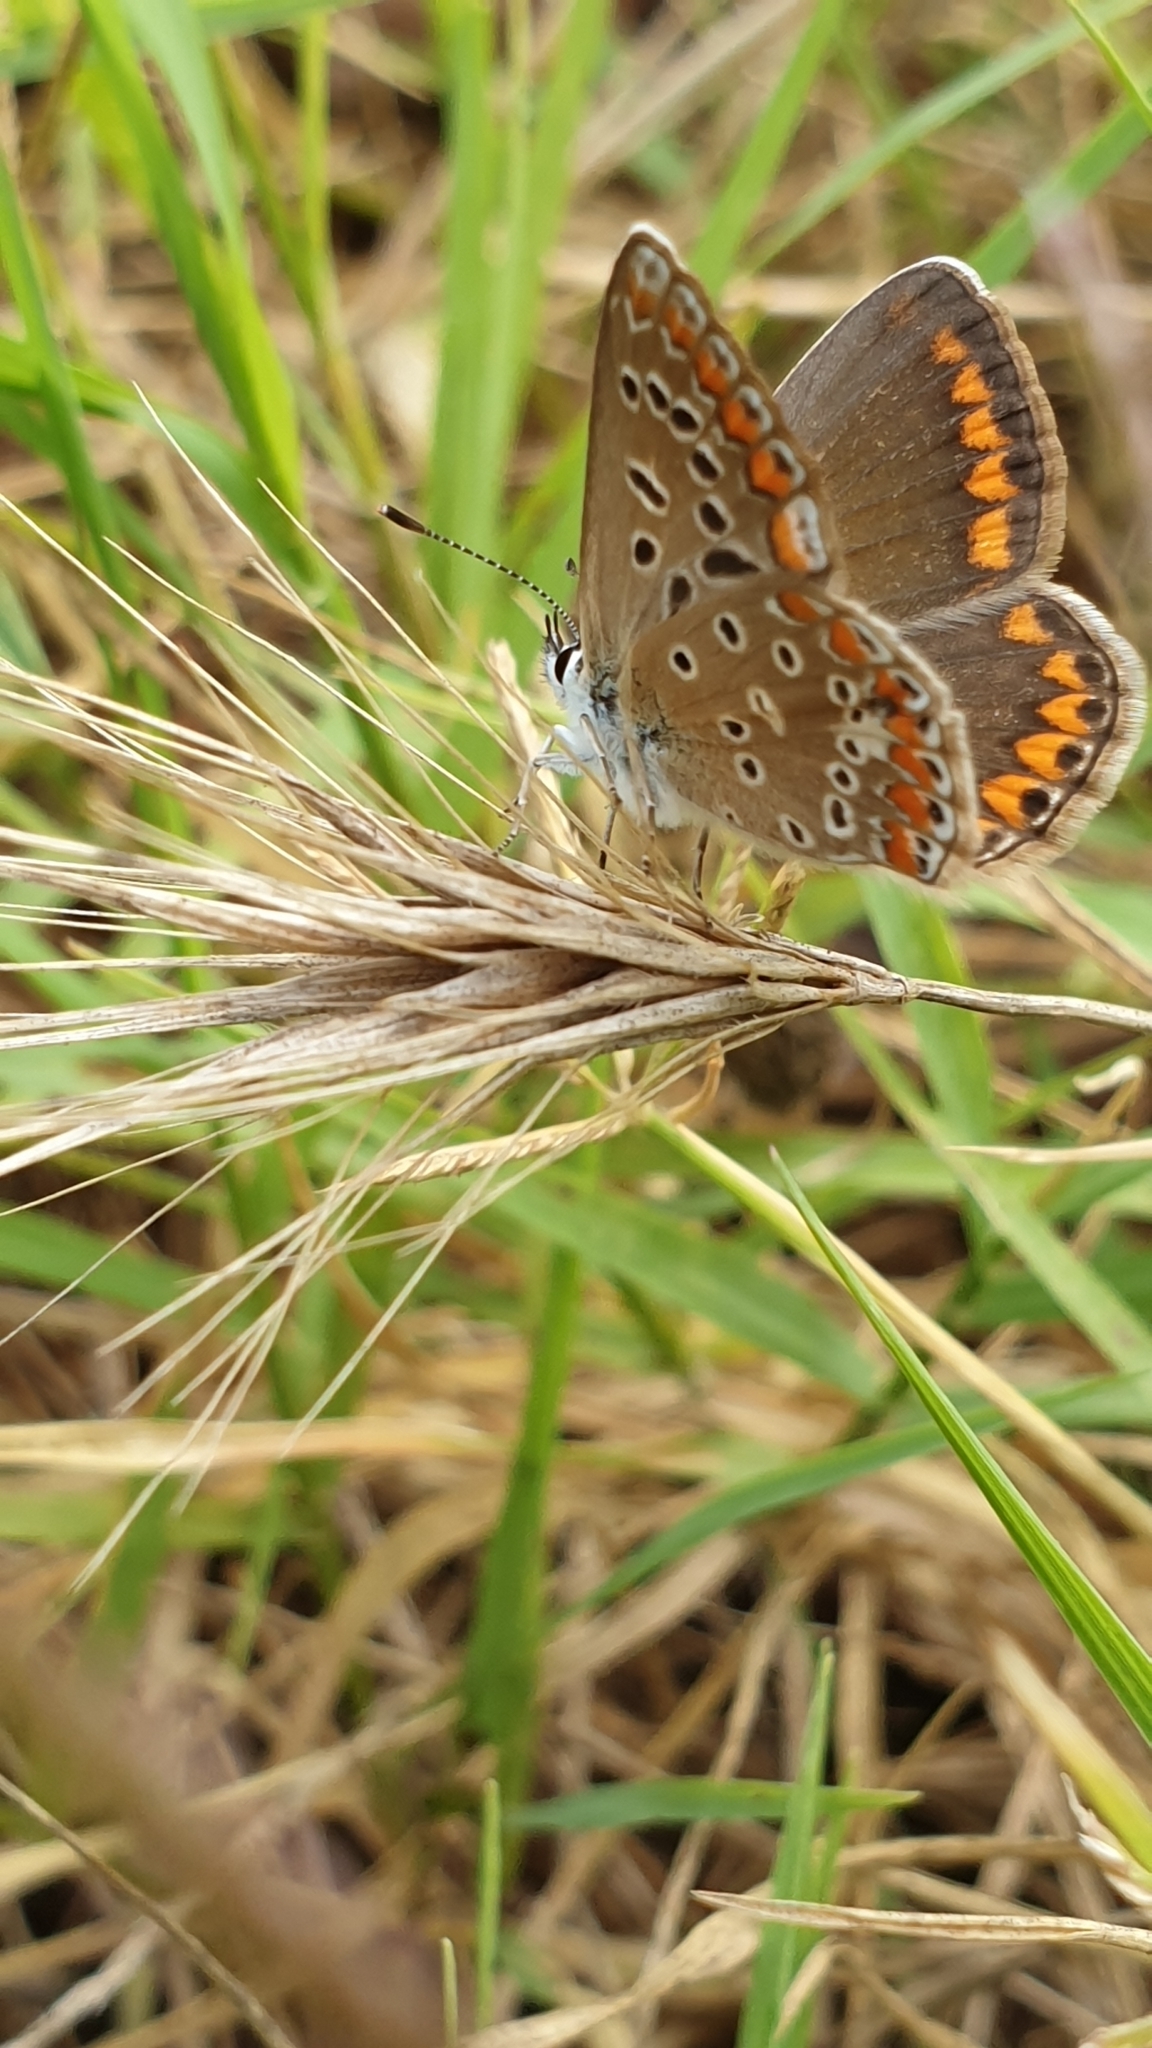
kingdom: Animalia
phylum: Arthropoda
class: Insecta
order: Lepidoptera
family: Lycaenidae
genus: Polyommatus
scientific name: Polyommatus icarus
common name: Common blue
